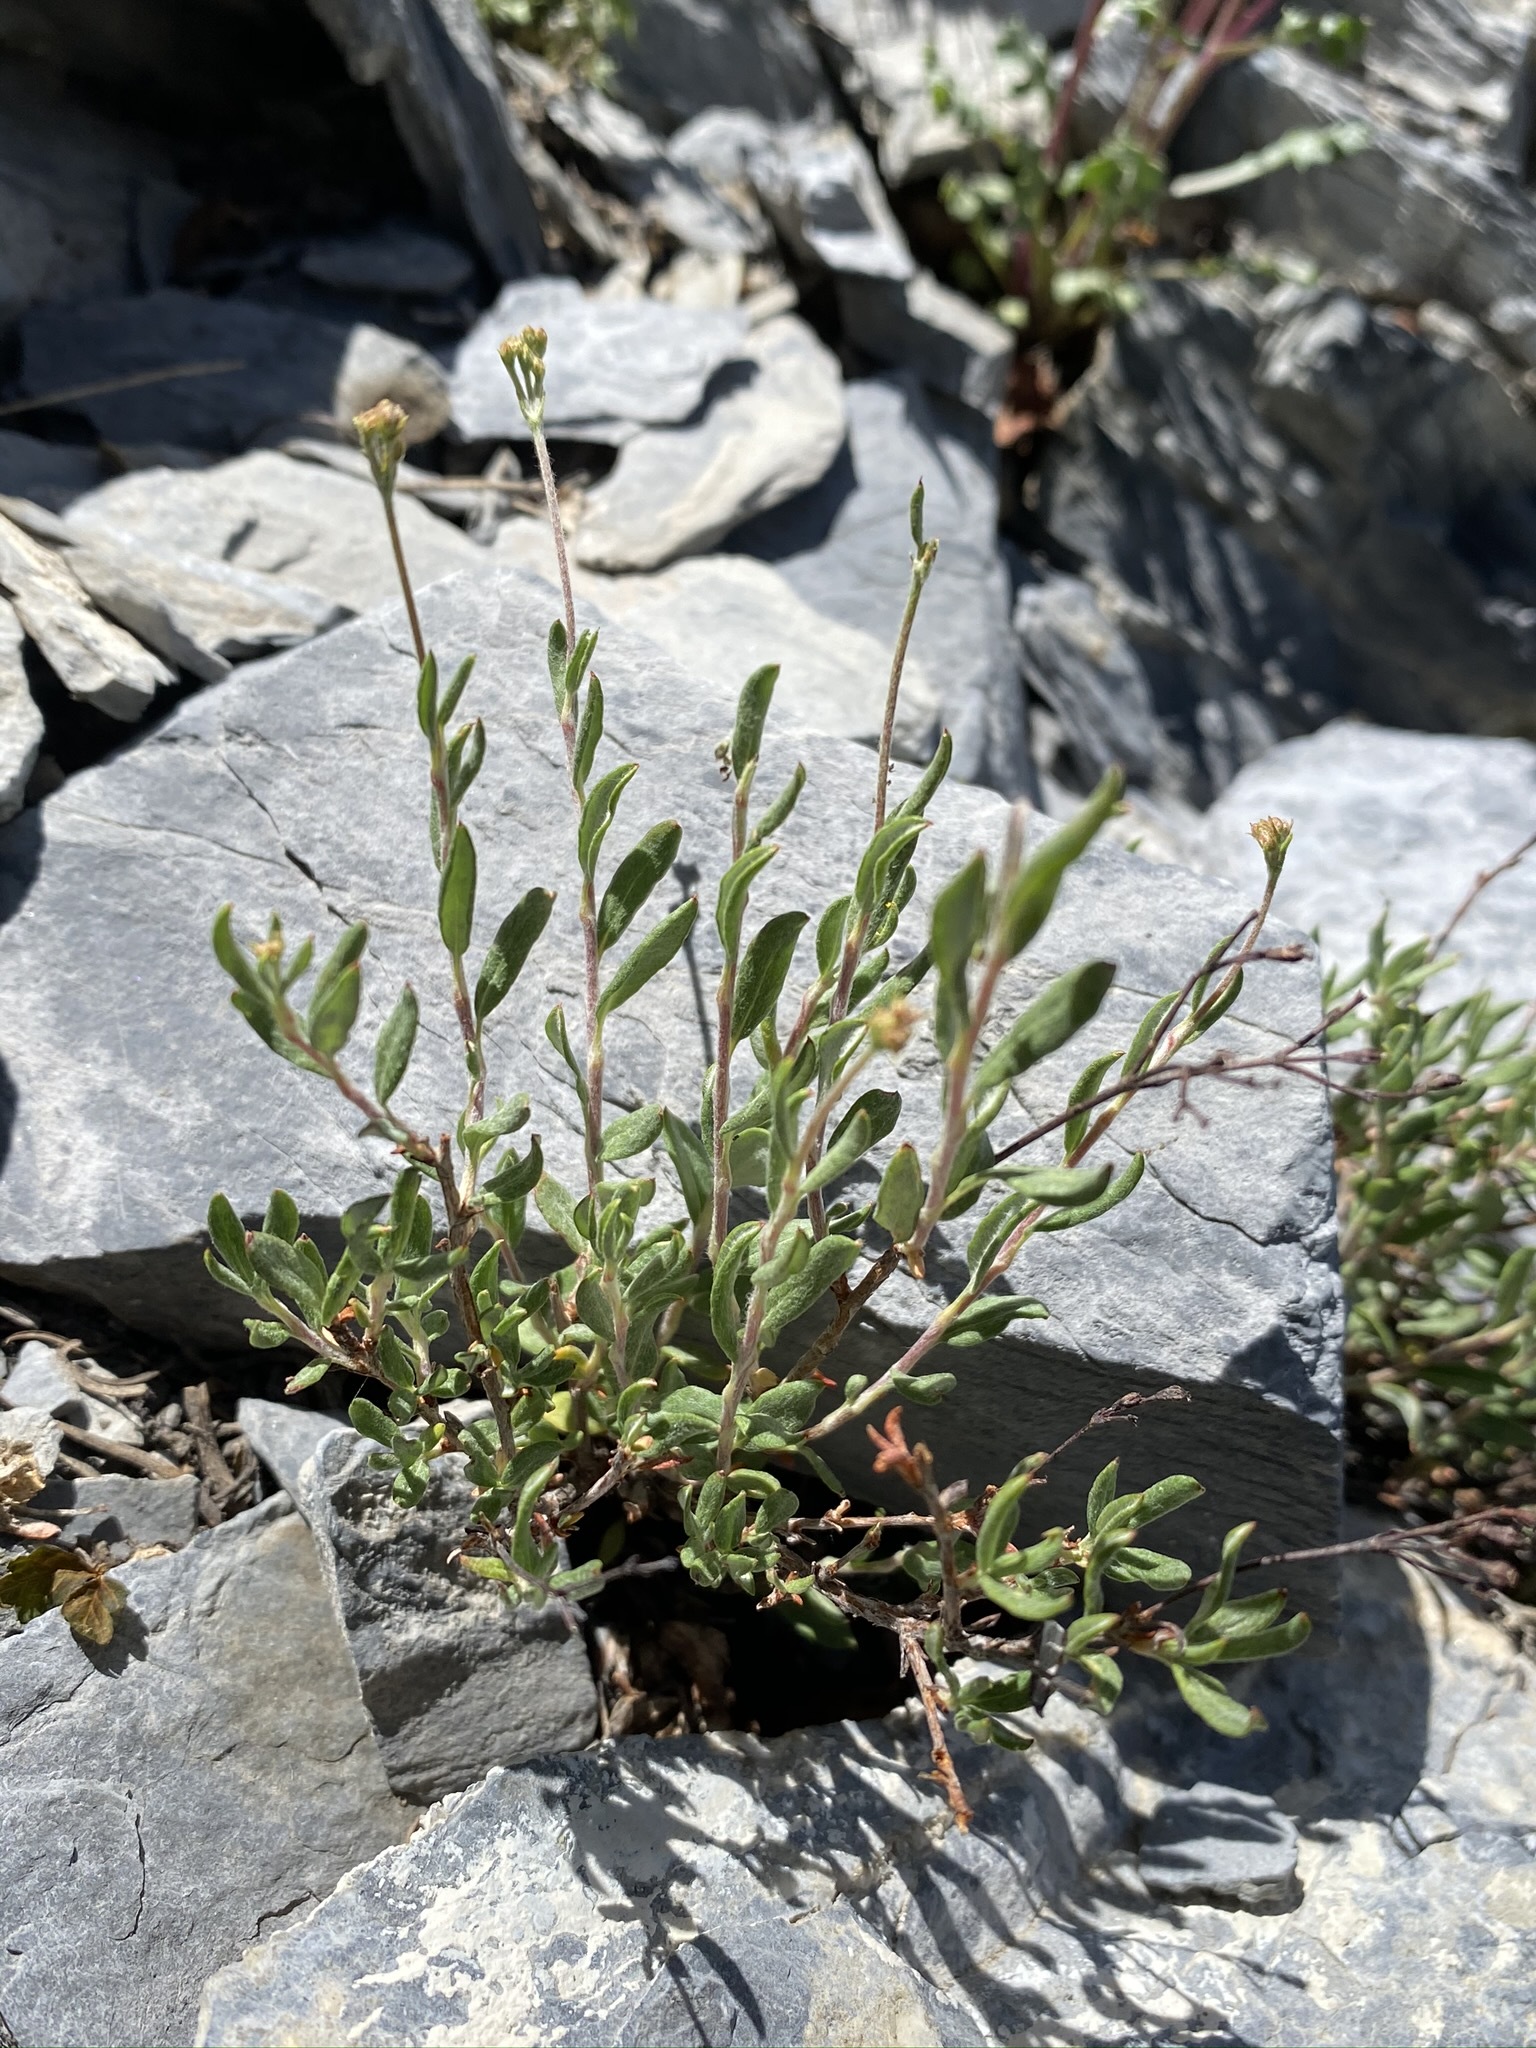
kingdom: Plantae
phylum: Tracheophyta
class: Magnoliopsida
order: Caryophyllales
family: Polygonaceae
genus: Eriogonum
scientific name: Eriogonum microtheca
